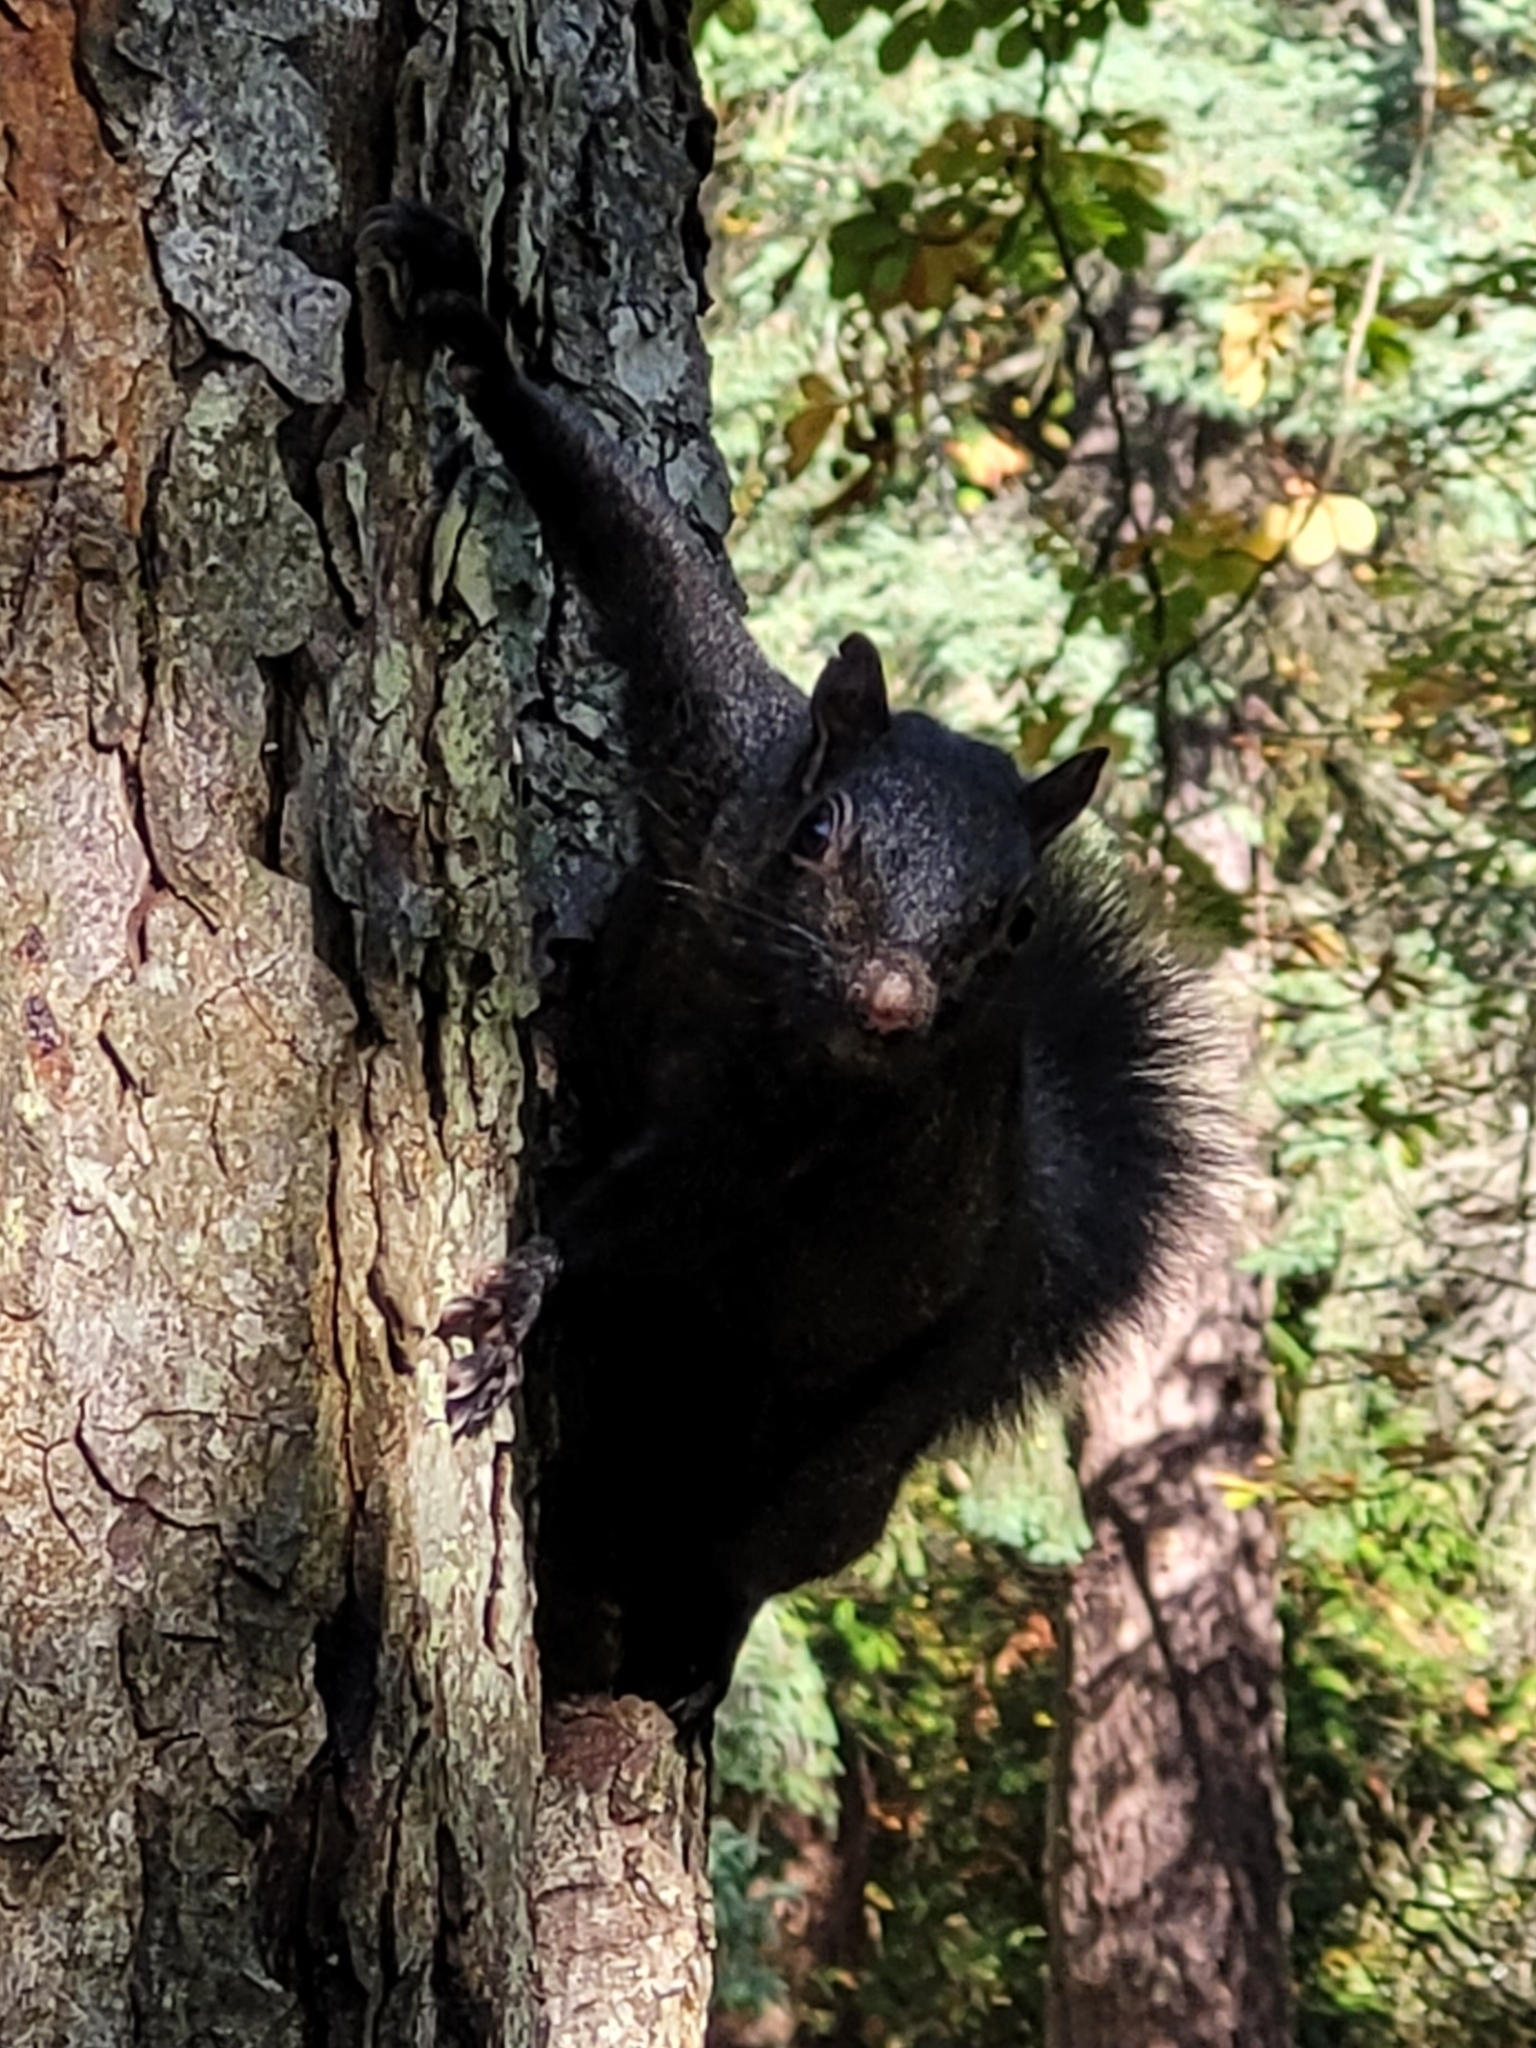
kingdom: Animalia
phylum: Chordata
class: Mammalia
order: Rodentia
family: Sciuridae
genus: Sciurus
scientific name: Sciurus carolinensis
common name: Eastern gray squirrel
